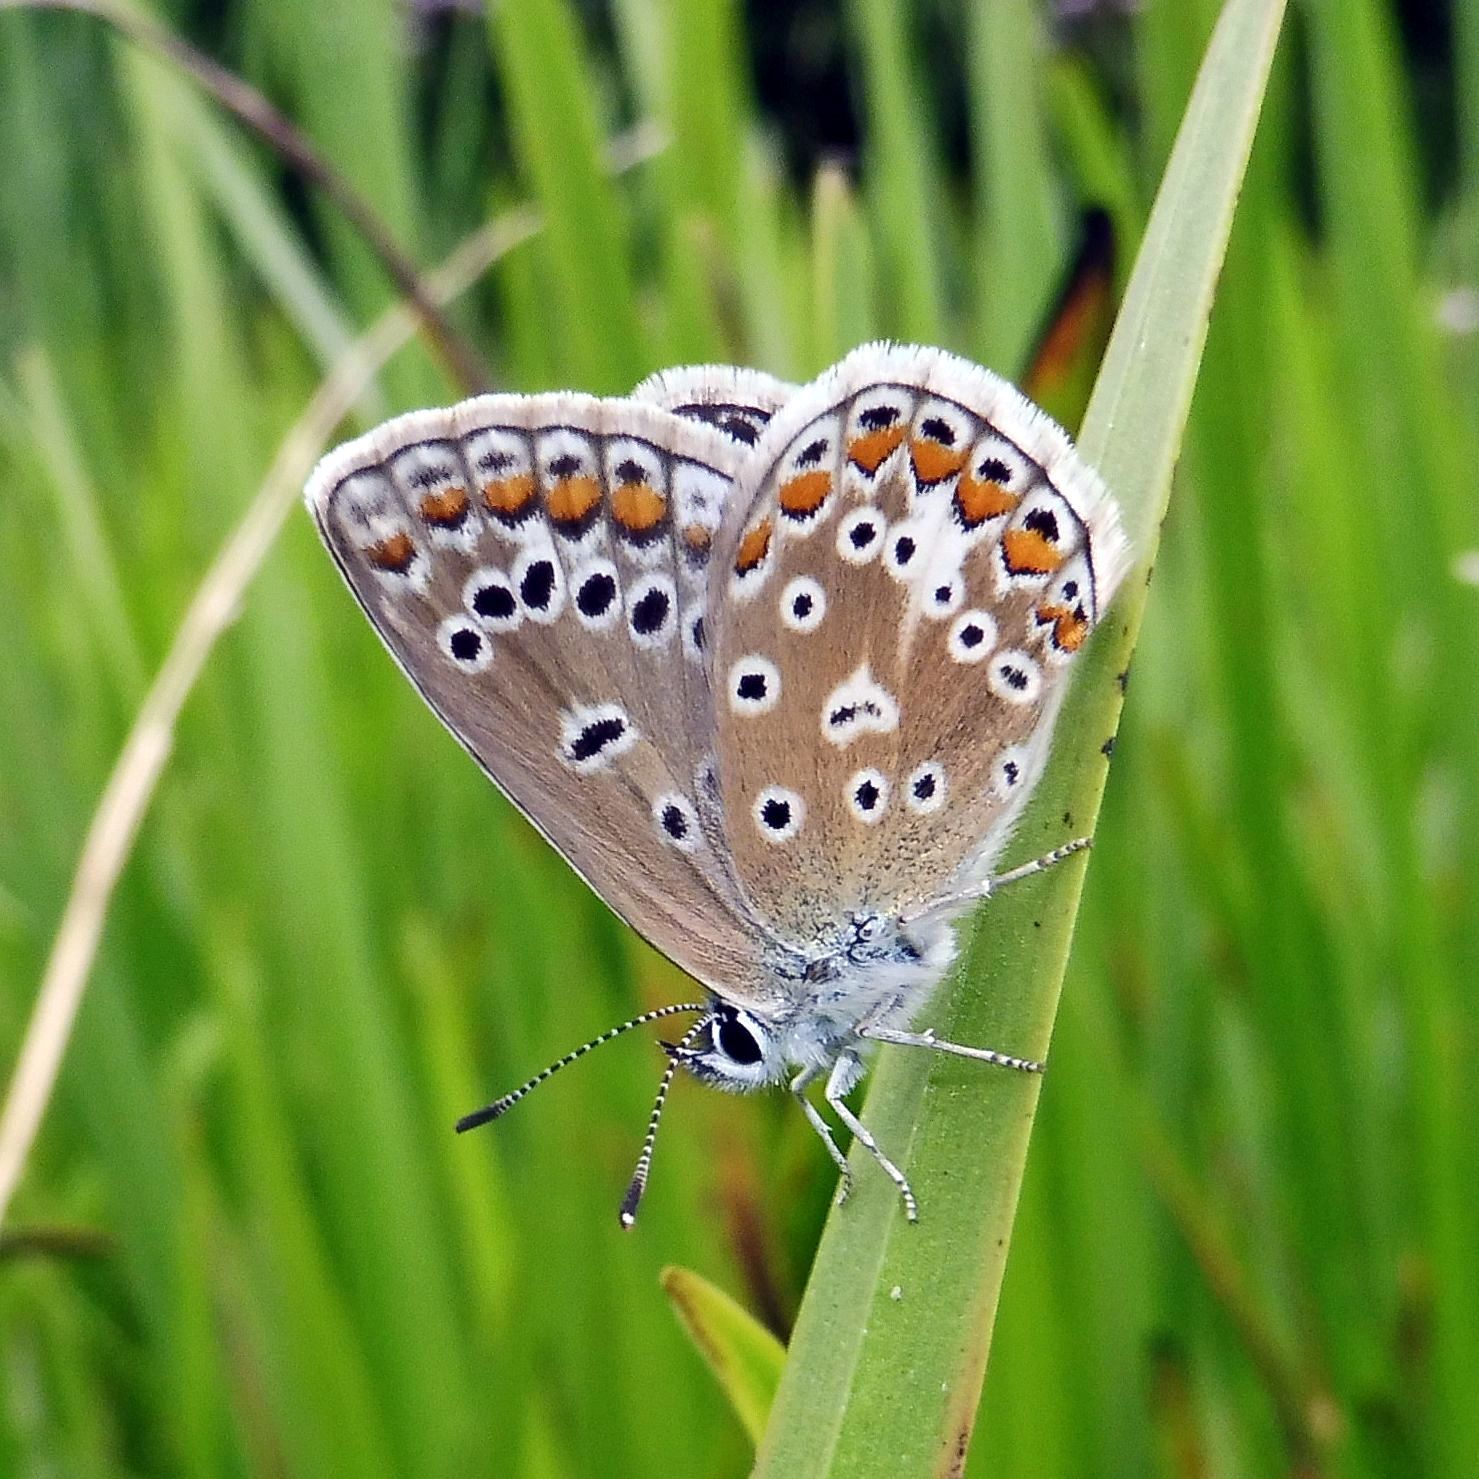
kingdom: Animalia
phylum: Arthropoda
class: Insecta
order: Lepidoptera
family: Lycaenidae
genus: Polyommatus
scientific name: Polyommatus icarus
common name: Common blue
